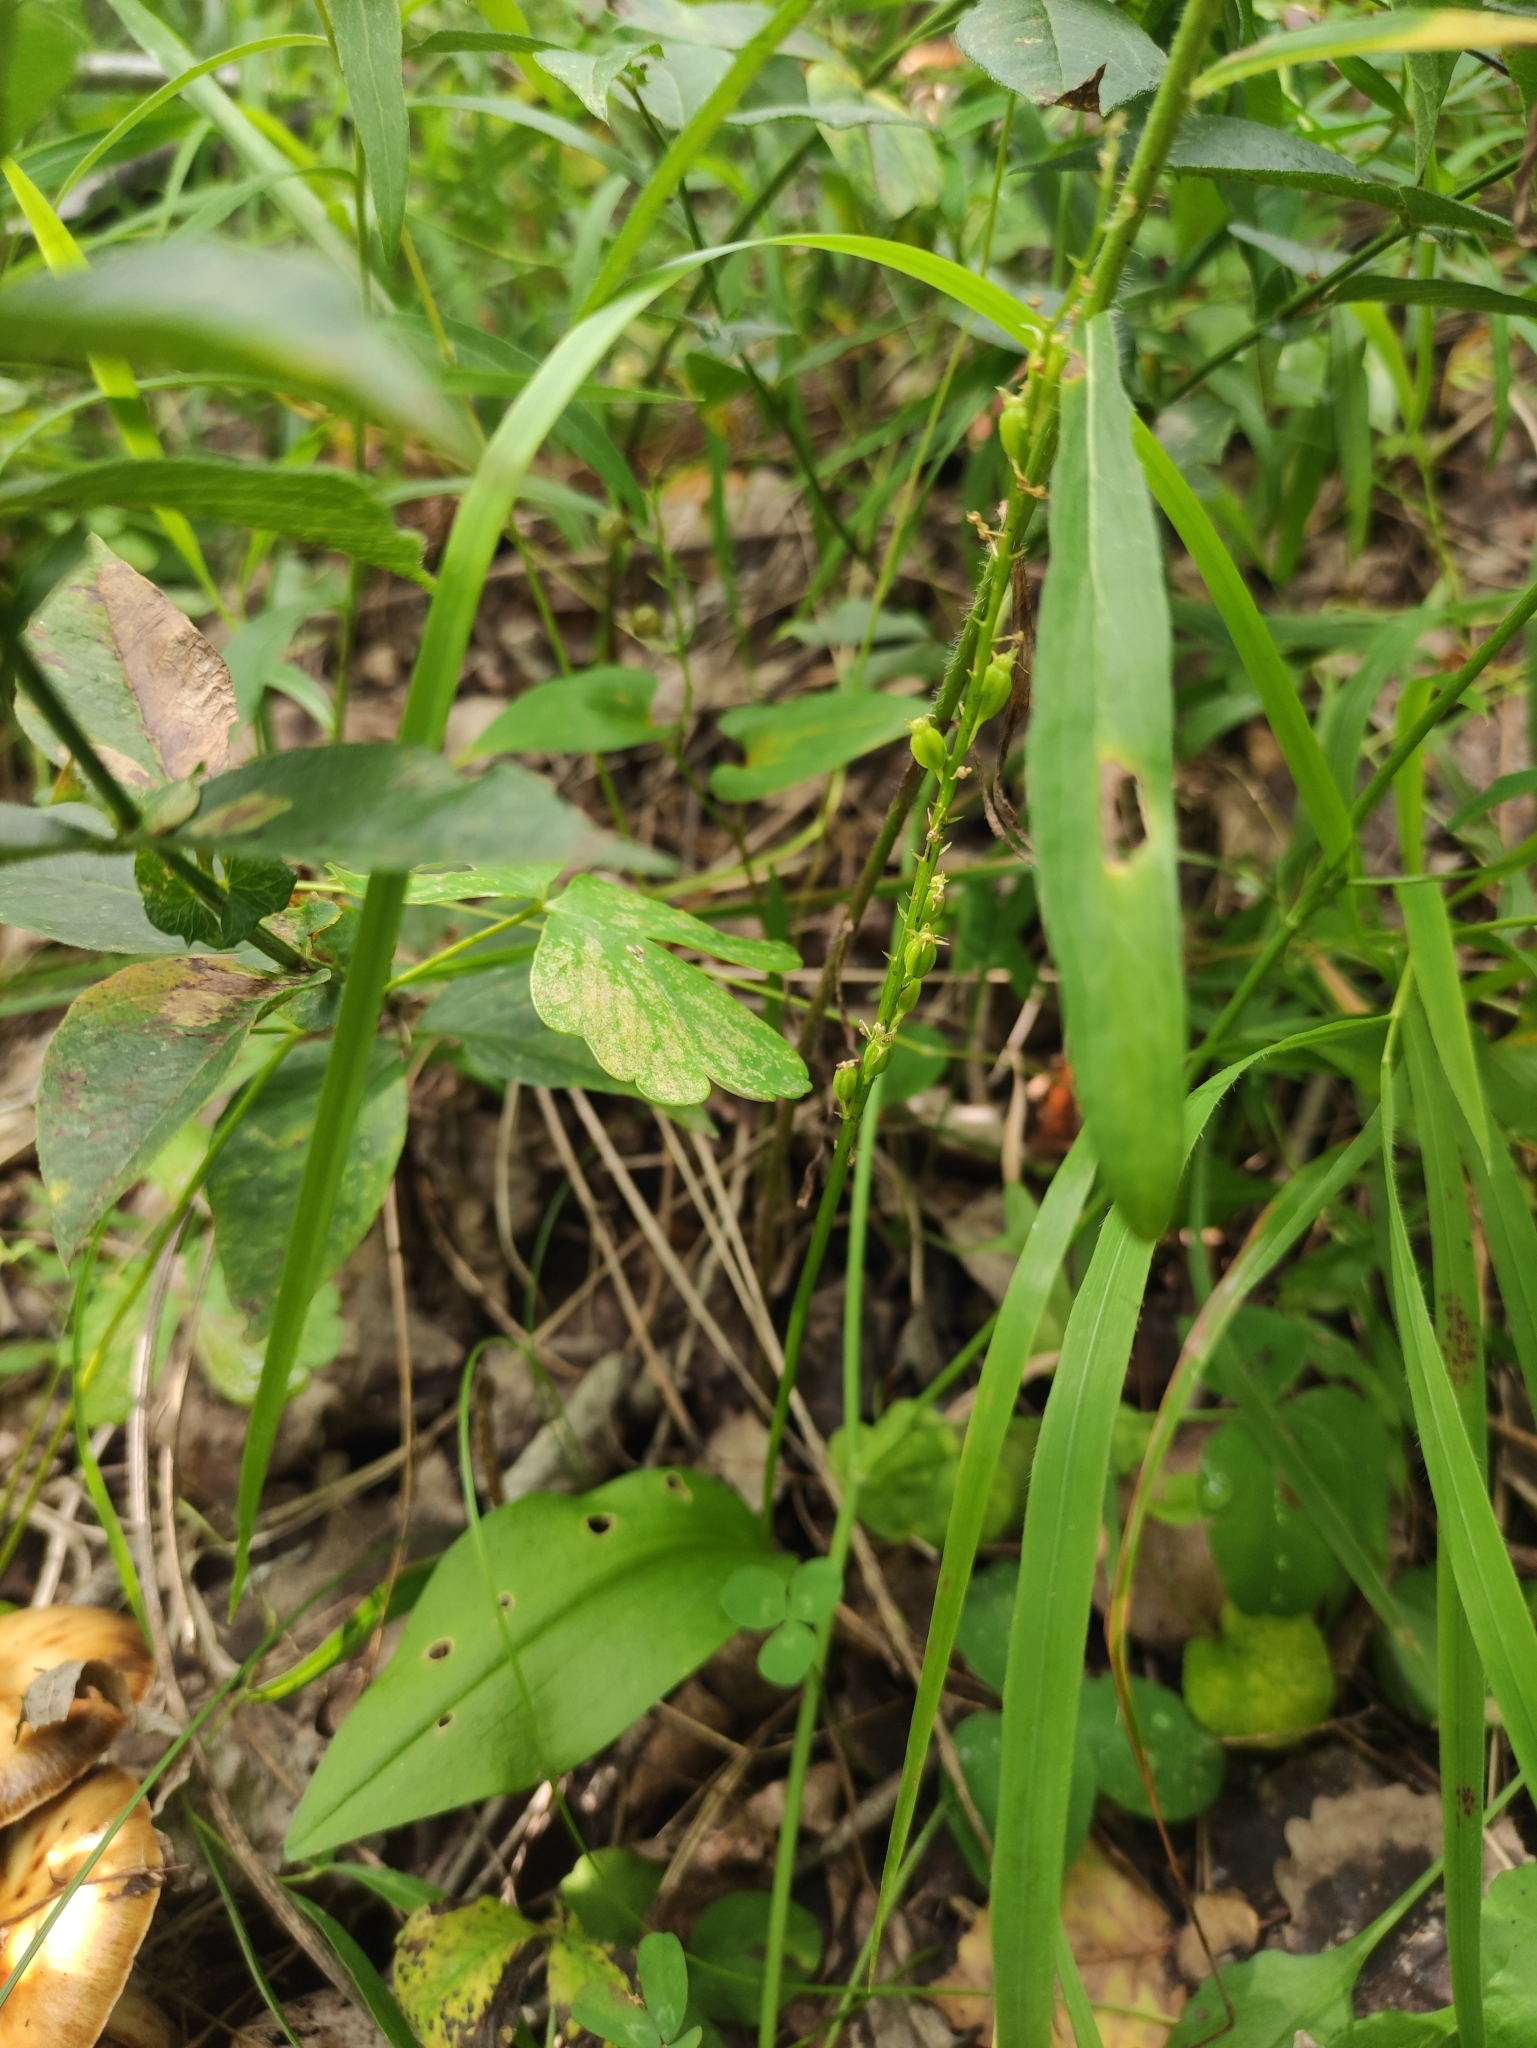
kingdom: Plantae
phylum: Tracheophyta
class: Liliopsida
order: Asparagales
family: Orchidaceae
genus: Malaxis
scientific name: Malaxis monophyllos
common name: White adder's-mouth
